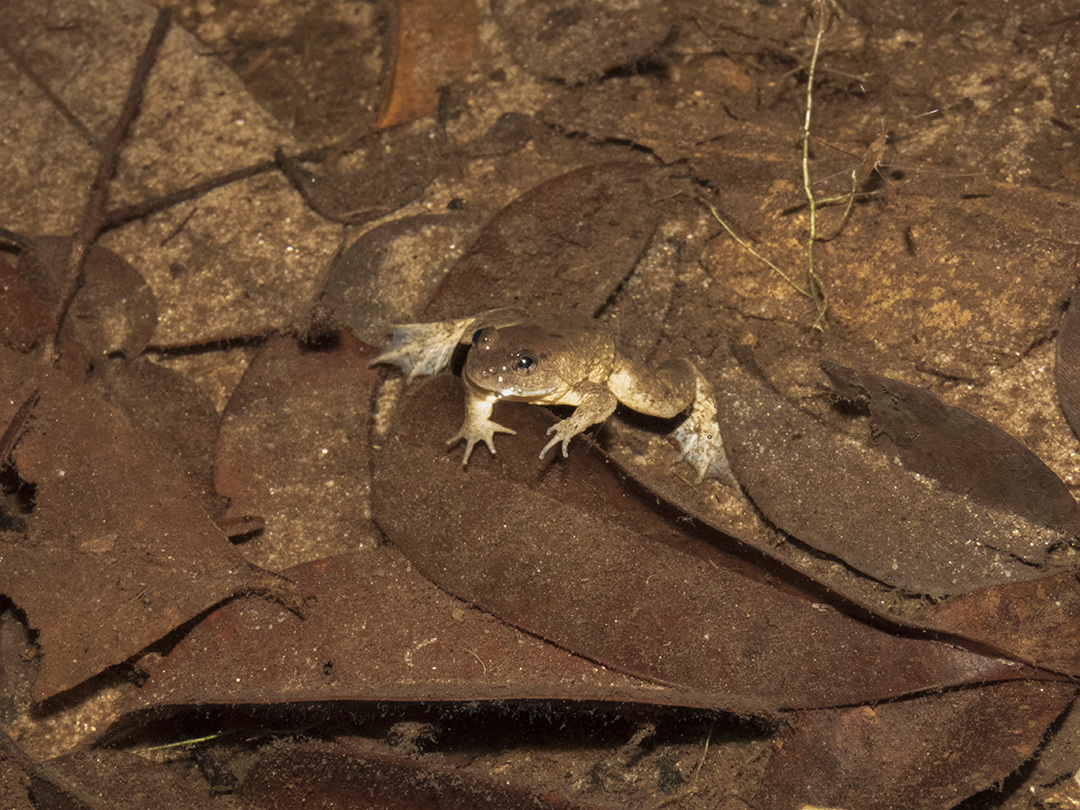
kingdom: Animalia
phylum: Chordata
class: Amphibia
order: Anura
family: Dicroglossidae
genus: Limnonectes
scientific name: Limnonectes conspicillatus
